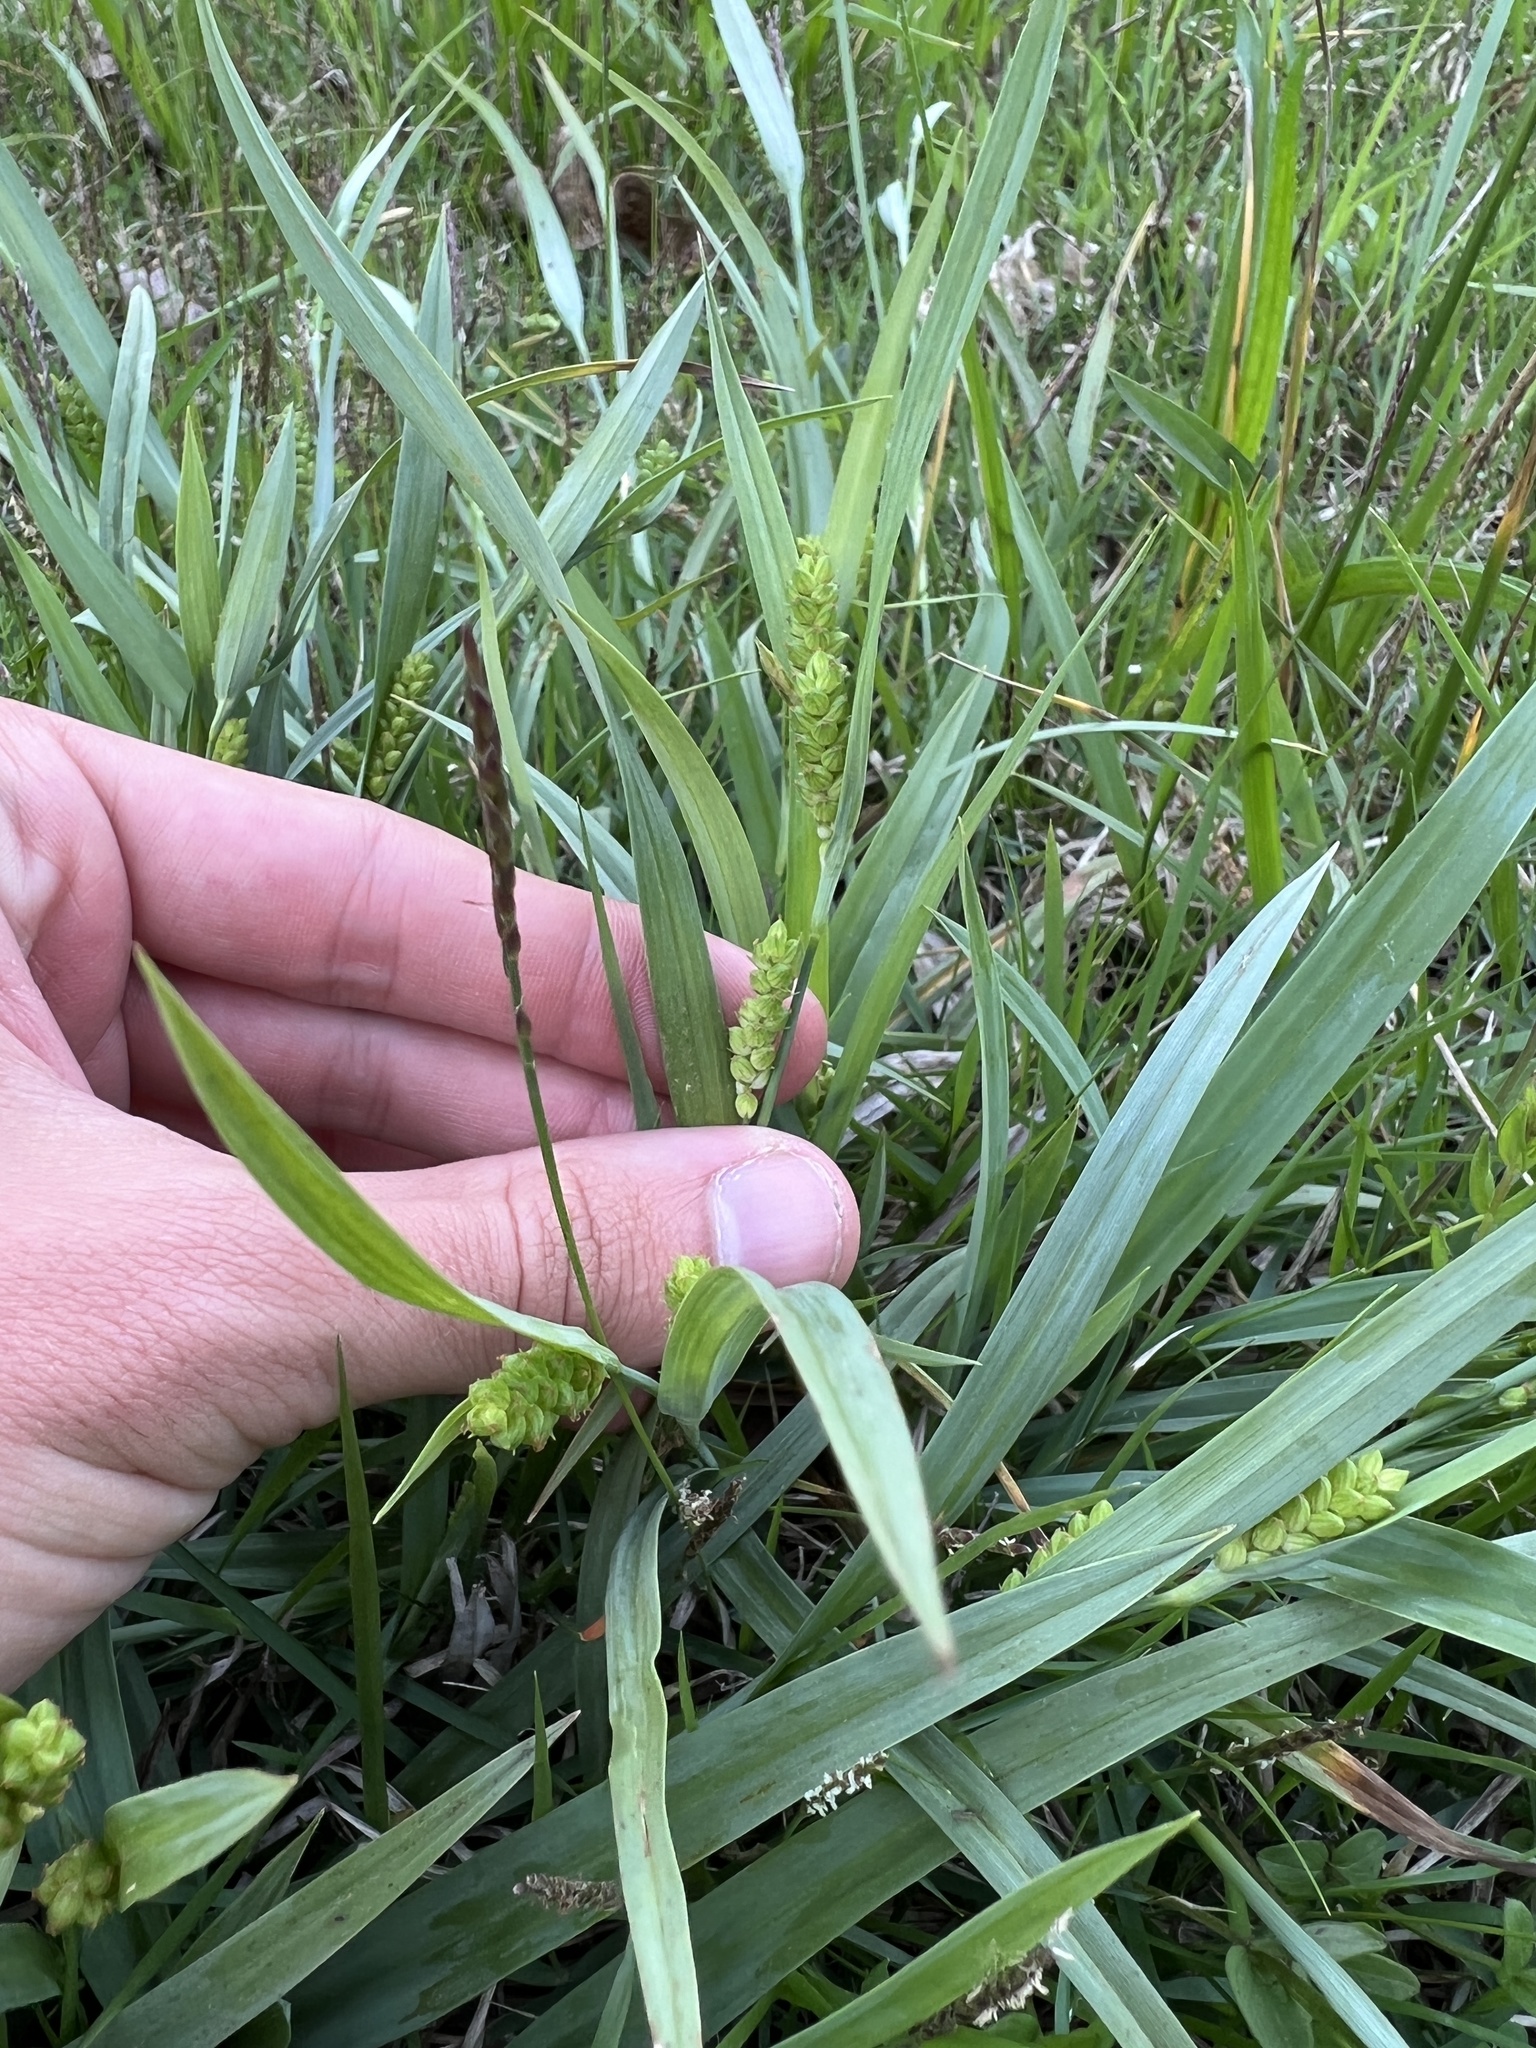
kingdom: Plantae
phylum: Tracheophyta
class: Liliopsida
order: Poales
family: Cyperaceae
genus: Carex
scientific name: Carex glaucodea
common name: Blue sedge
